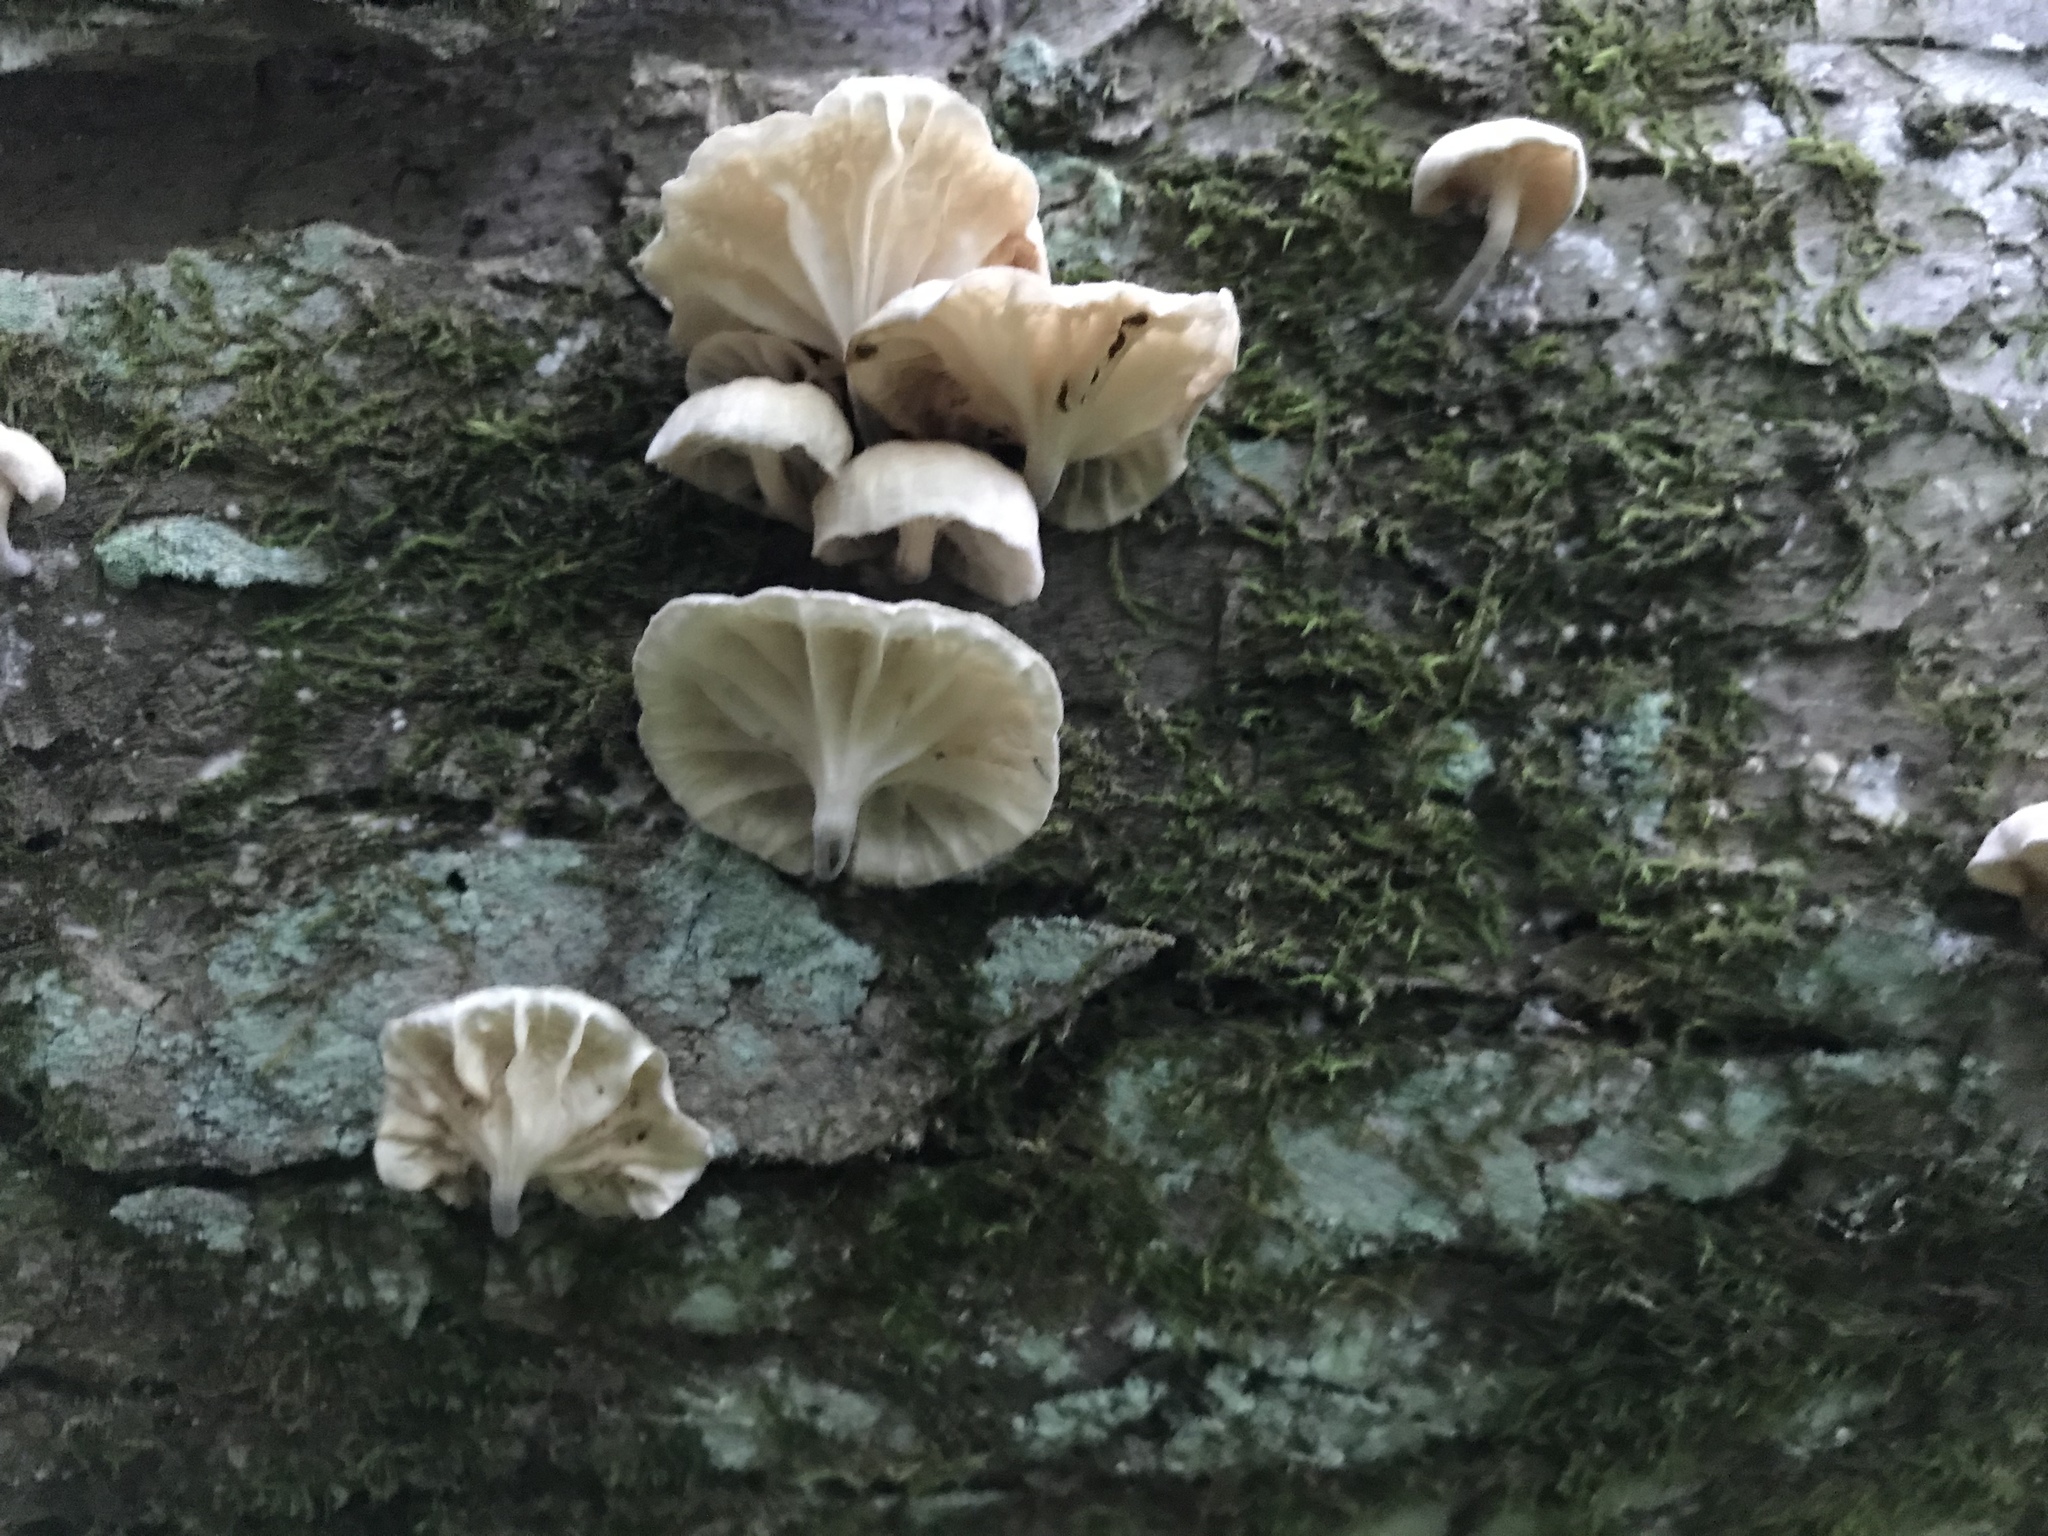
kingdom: Fungi
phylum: Basidiomycota
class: Agaricomycetes
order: Agaricales
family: Omphalotaceae
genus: Marasmiellus
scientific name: Marasmiellus candidus
